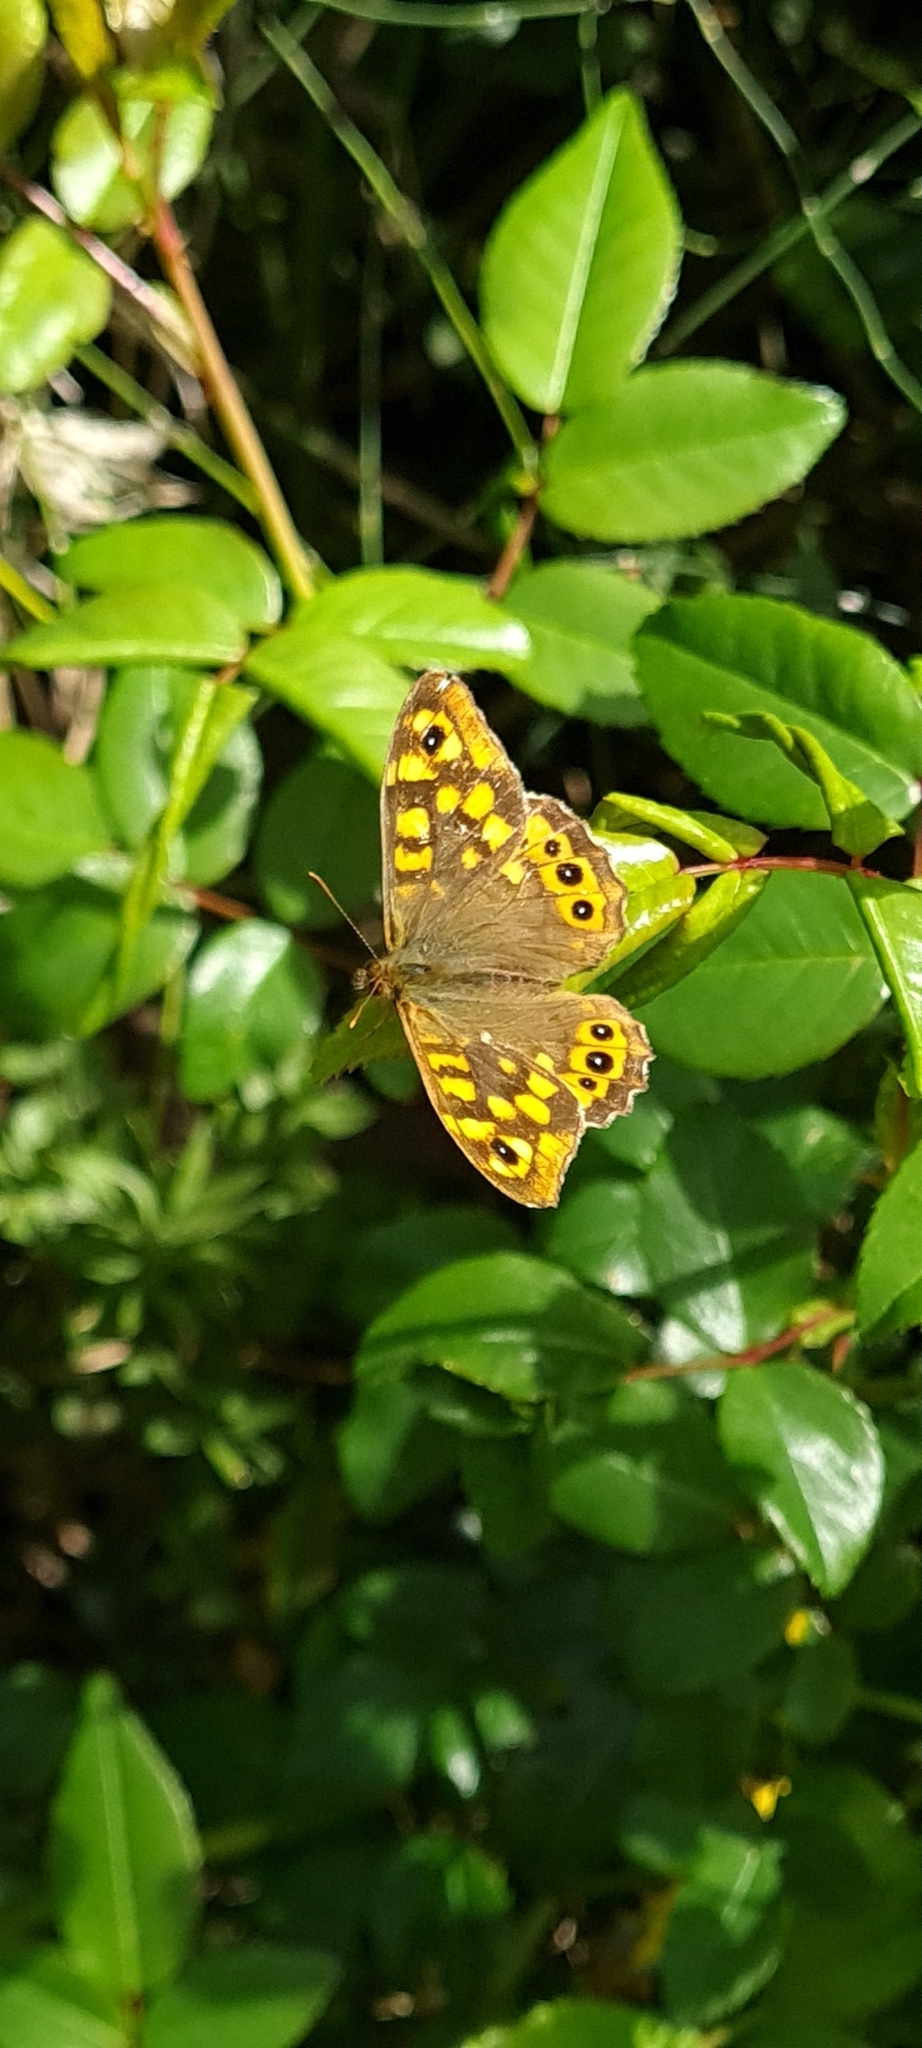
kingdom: Animalia
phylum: Arthropoda
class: Insecta
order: Lepidoptera
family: Nymphalidae
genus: Pararge
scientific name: Pararge aegeria
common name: Speckled wood
